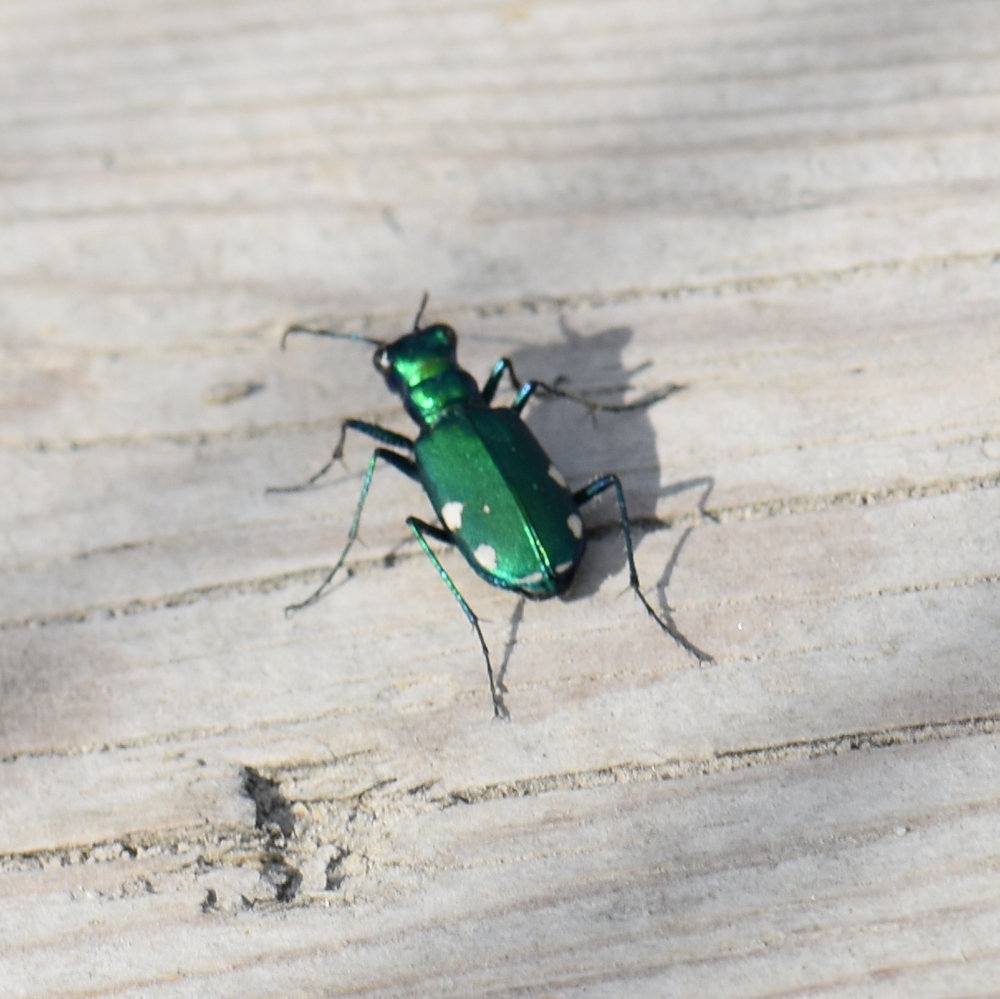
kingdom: Animalia
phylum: Arthropoda
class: Insecta
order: Coleoptera
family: Carabidae
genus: Cicindela
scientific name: Cicindela sexguttata
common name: Six-spotted tiger beetle
